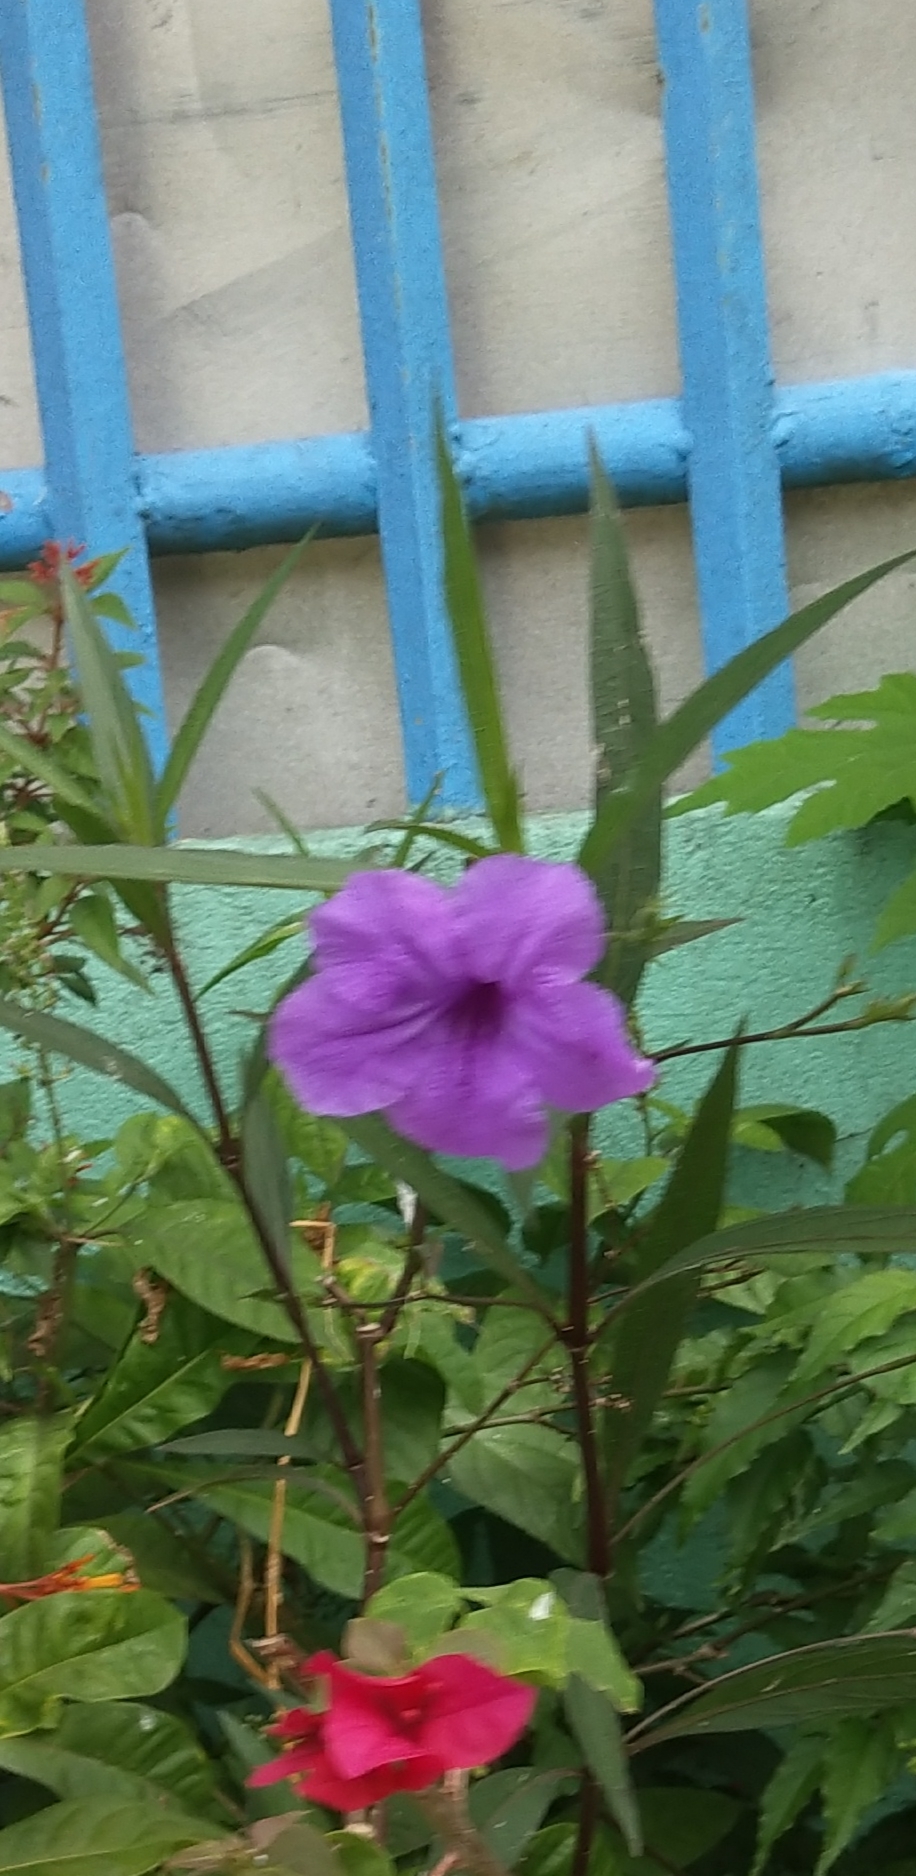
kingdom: Plantae
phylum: Tracheophyta
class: Magnoliopsida
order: Lamiales
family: Acanthaceae
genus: Ruellia
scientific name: Ruellia simplex
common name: Softseed wild petunia
